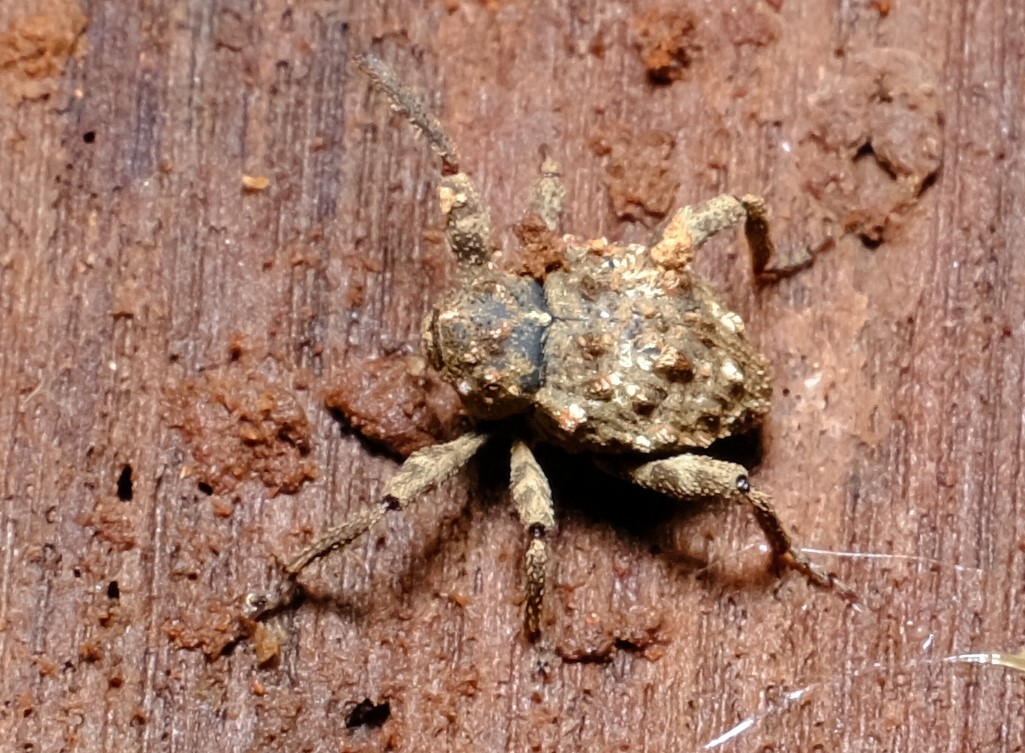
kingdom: Animalia
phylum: Arthropoda
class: Insecta
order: Coleoptera
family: Curculionidae
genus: Paleticus
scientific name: Paleticus cordipennis
